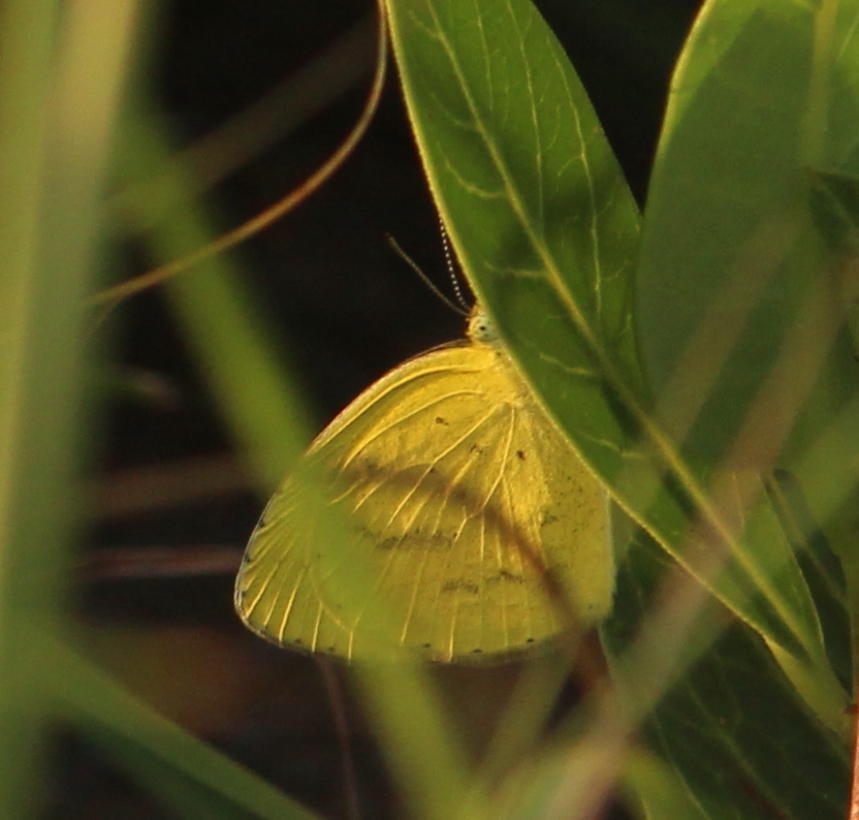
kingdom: Animalia
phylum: Arthropoda
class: Insecta
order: Lepidoptera
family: Pieridae
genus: Eurema
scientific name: Eurema brigitta
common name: Small grass yellow
